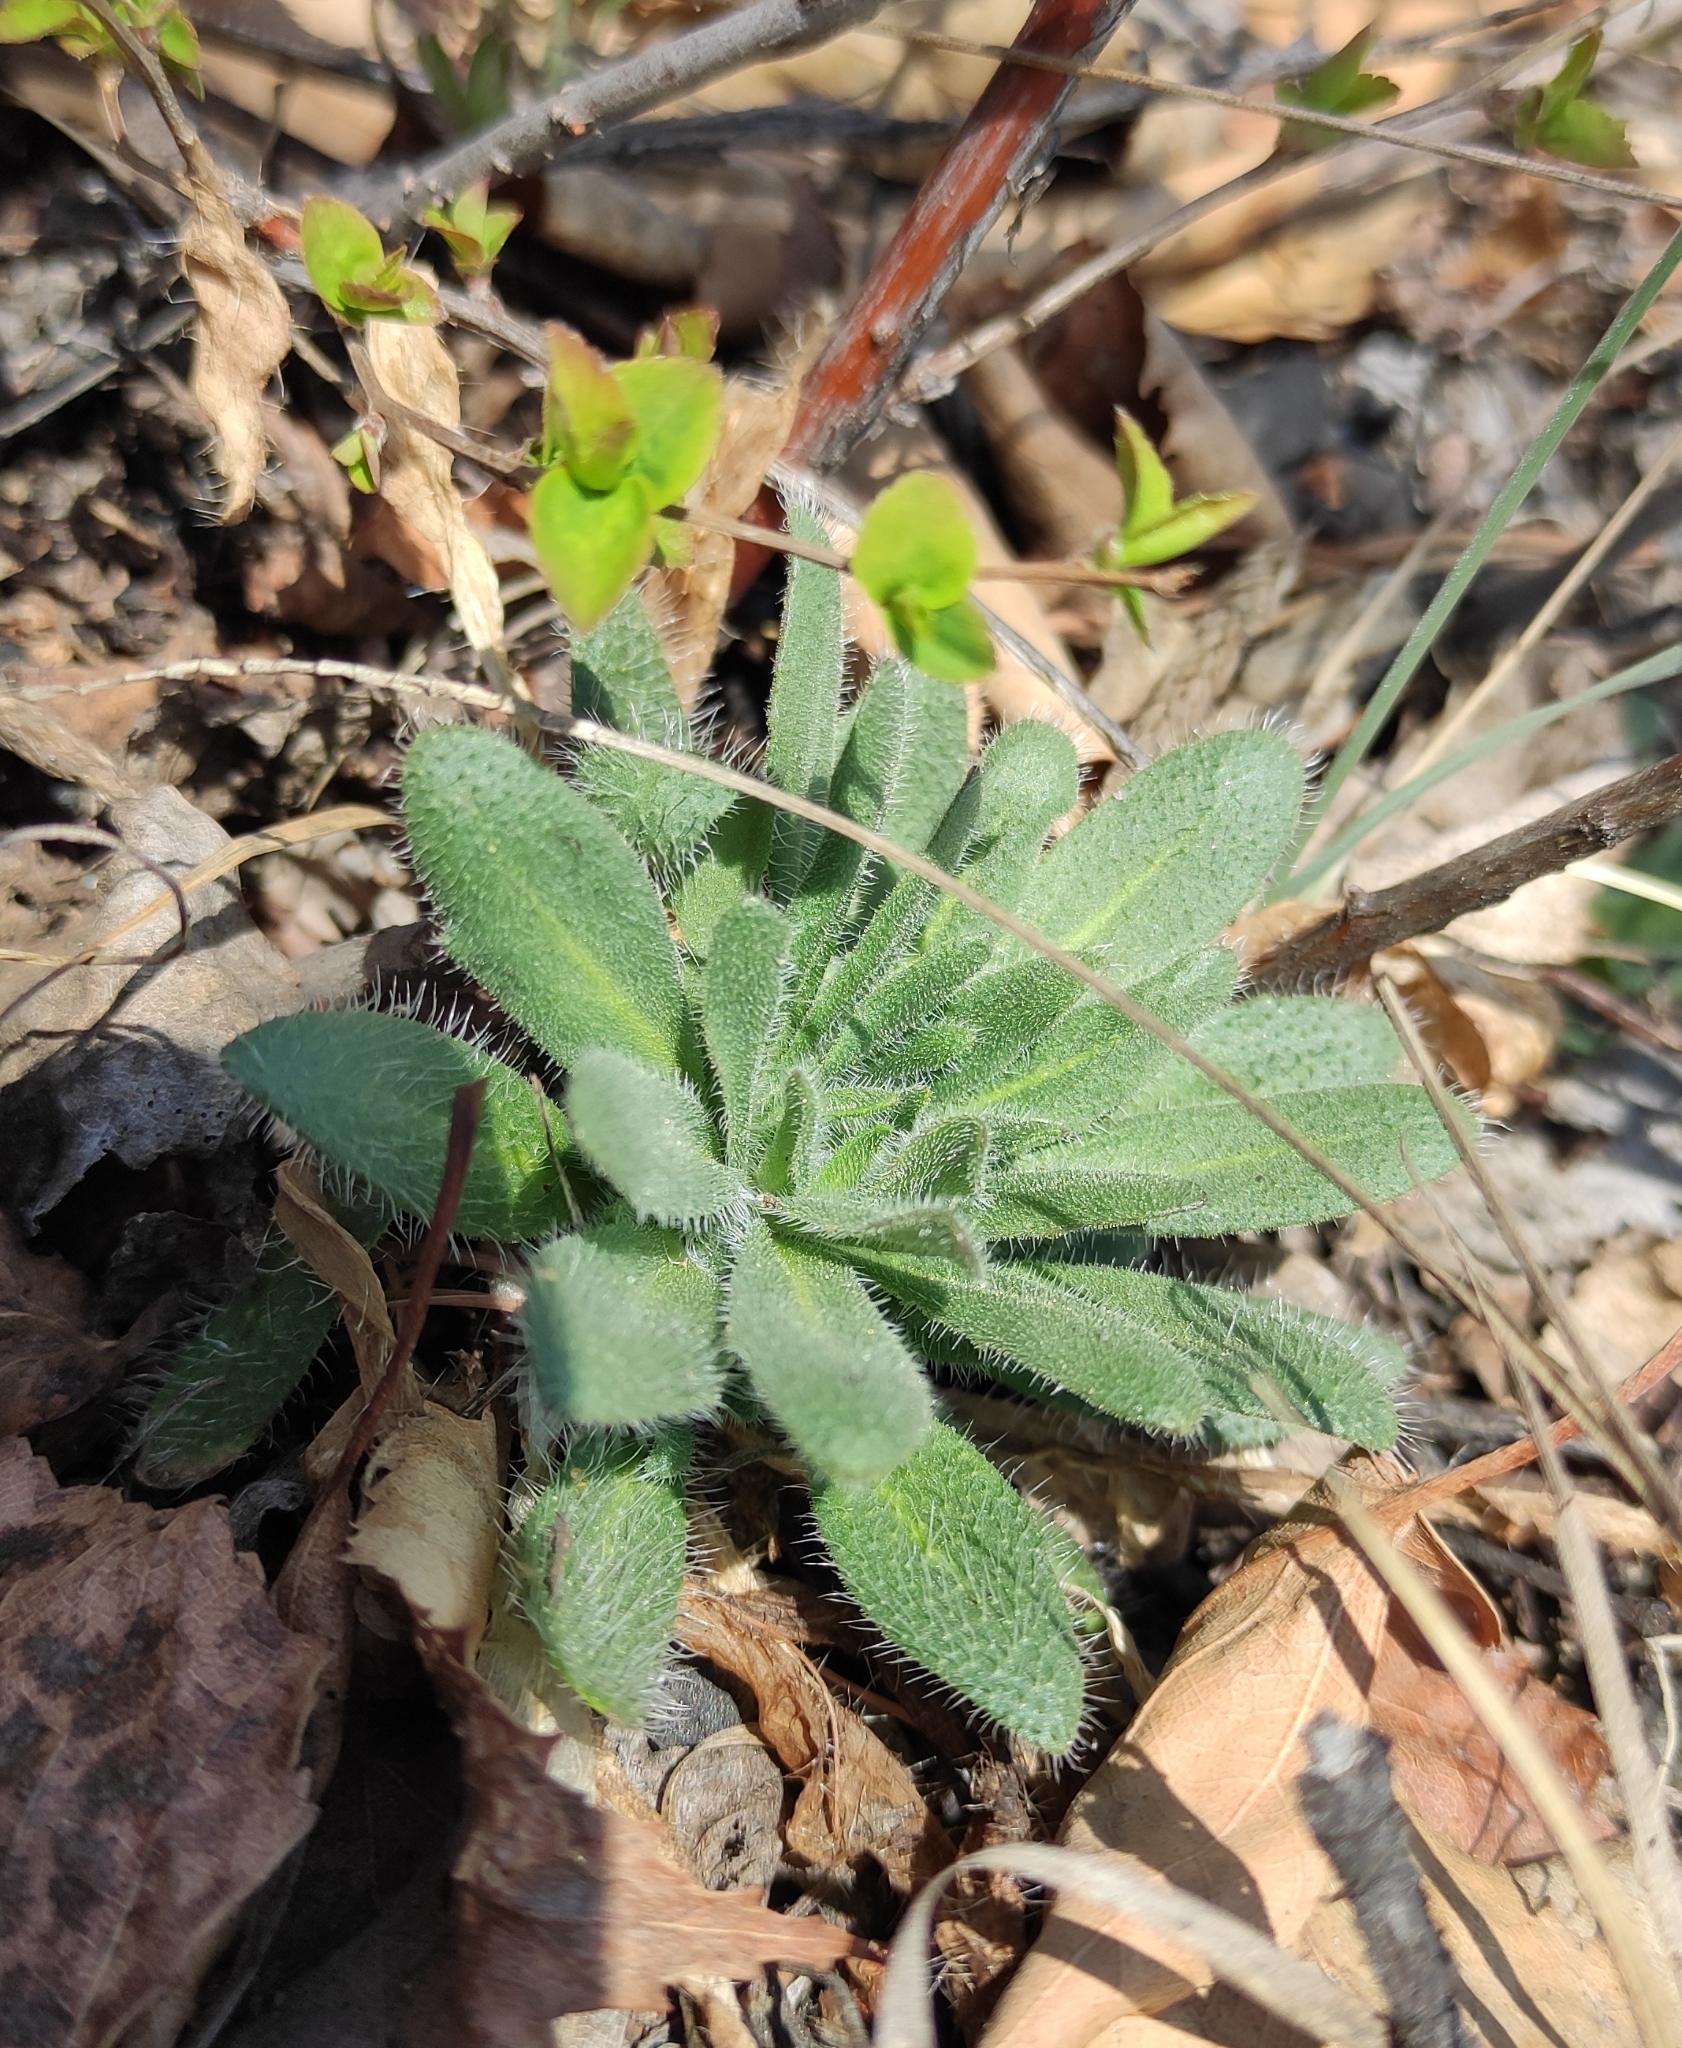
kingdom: Plantae
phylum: Tracheophyta
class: Magnoliopsida
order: Brassicales
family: Brassicaceae
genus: Draba
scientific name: Draba nemorosa
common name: Wood whitlow-grass
